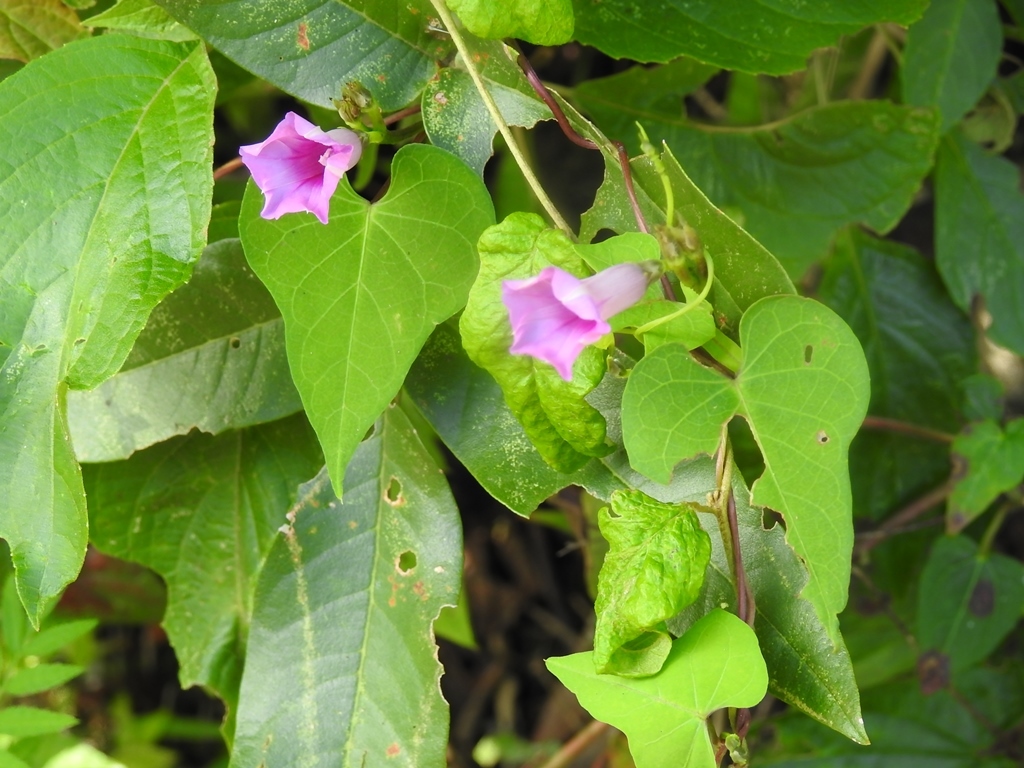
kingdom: Plantae
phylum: Tracheophyta
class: Magnoliopsida
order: Solanales
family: Convolvulaceae
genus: Ipomoea
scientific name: Ipomoea triloba
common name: Little-bell
